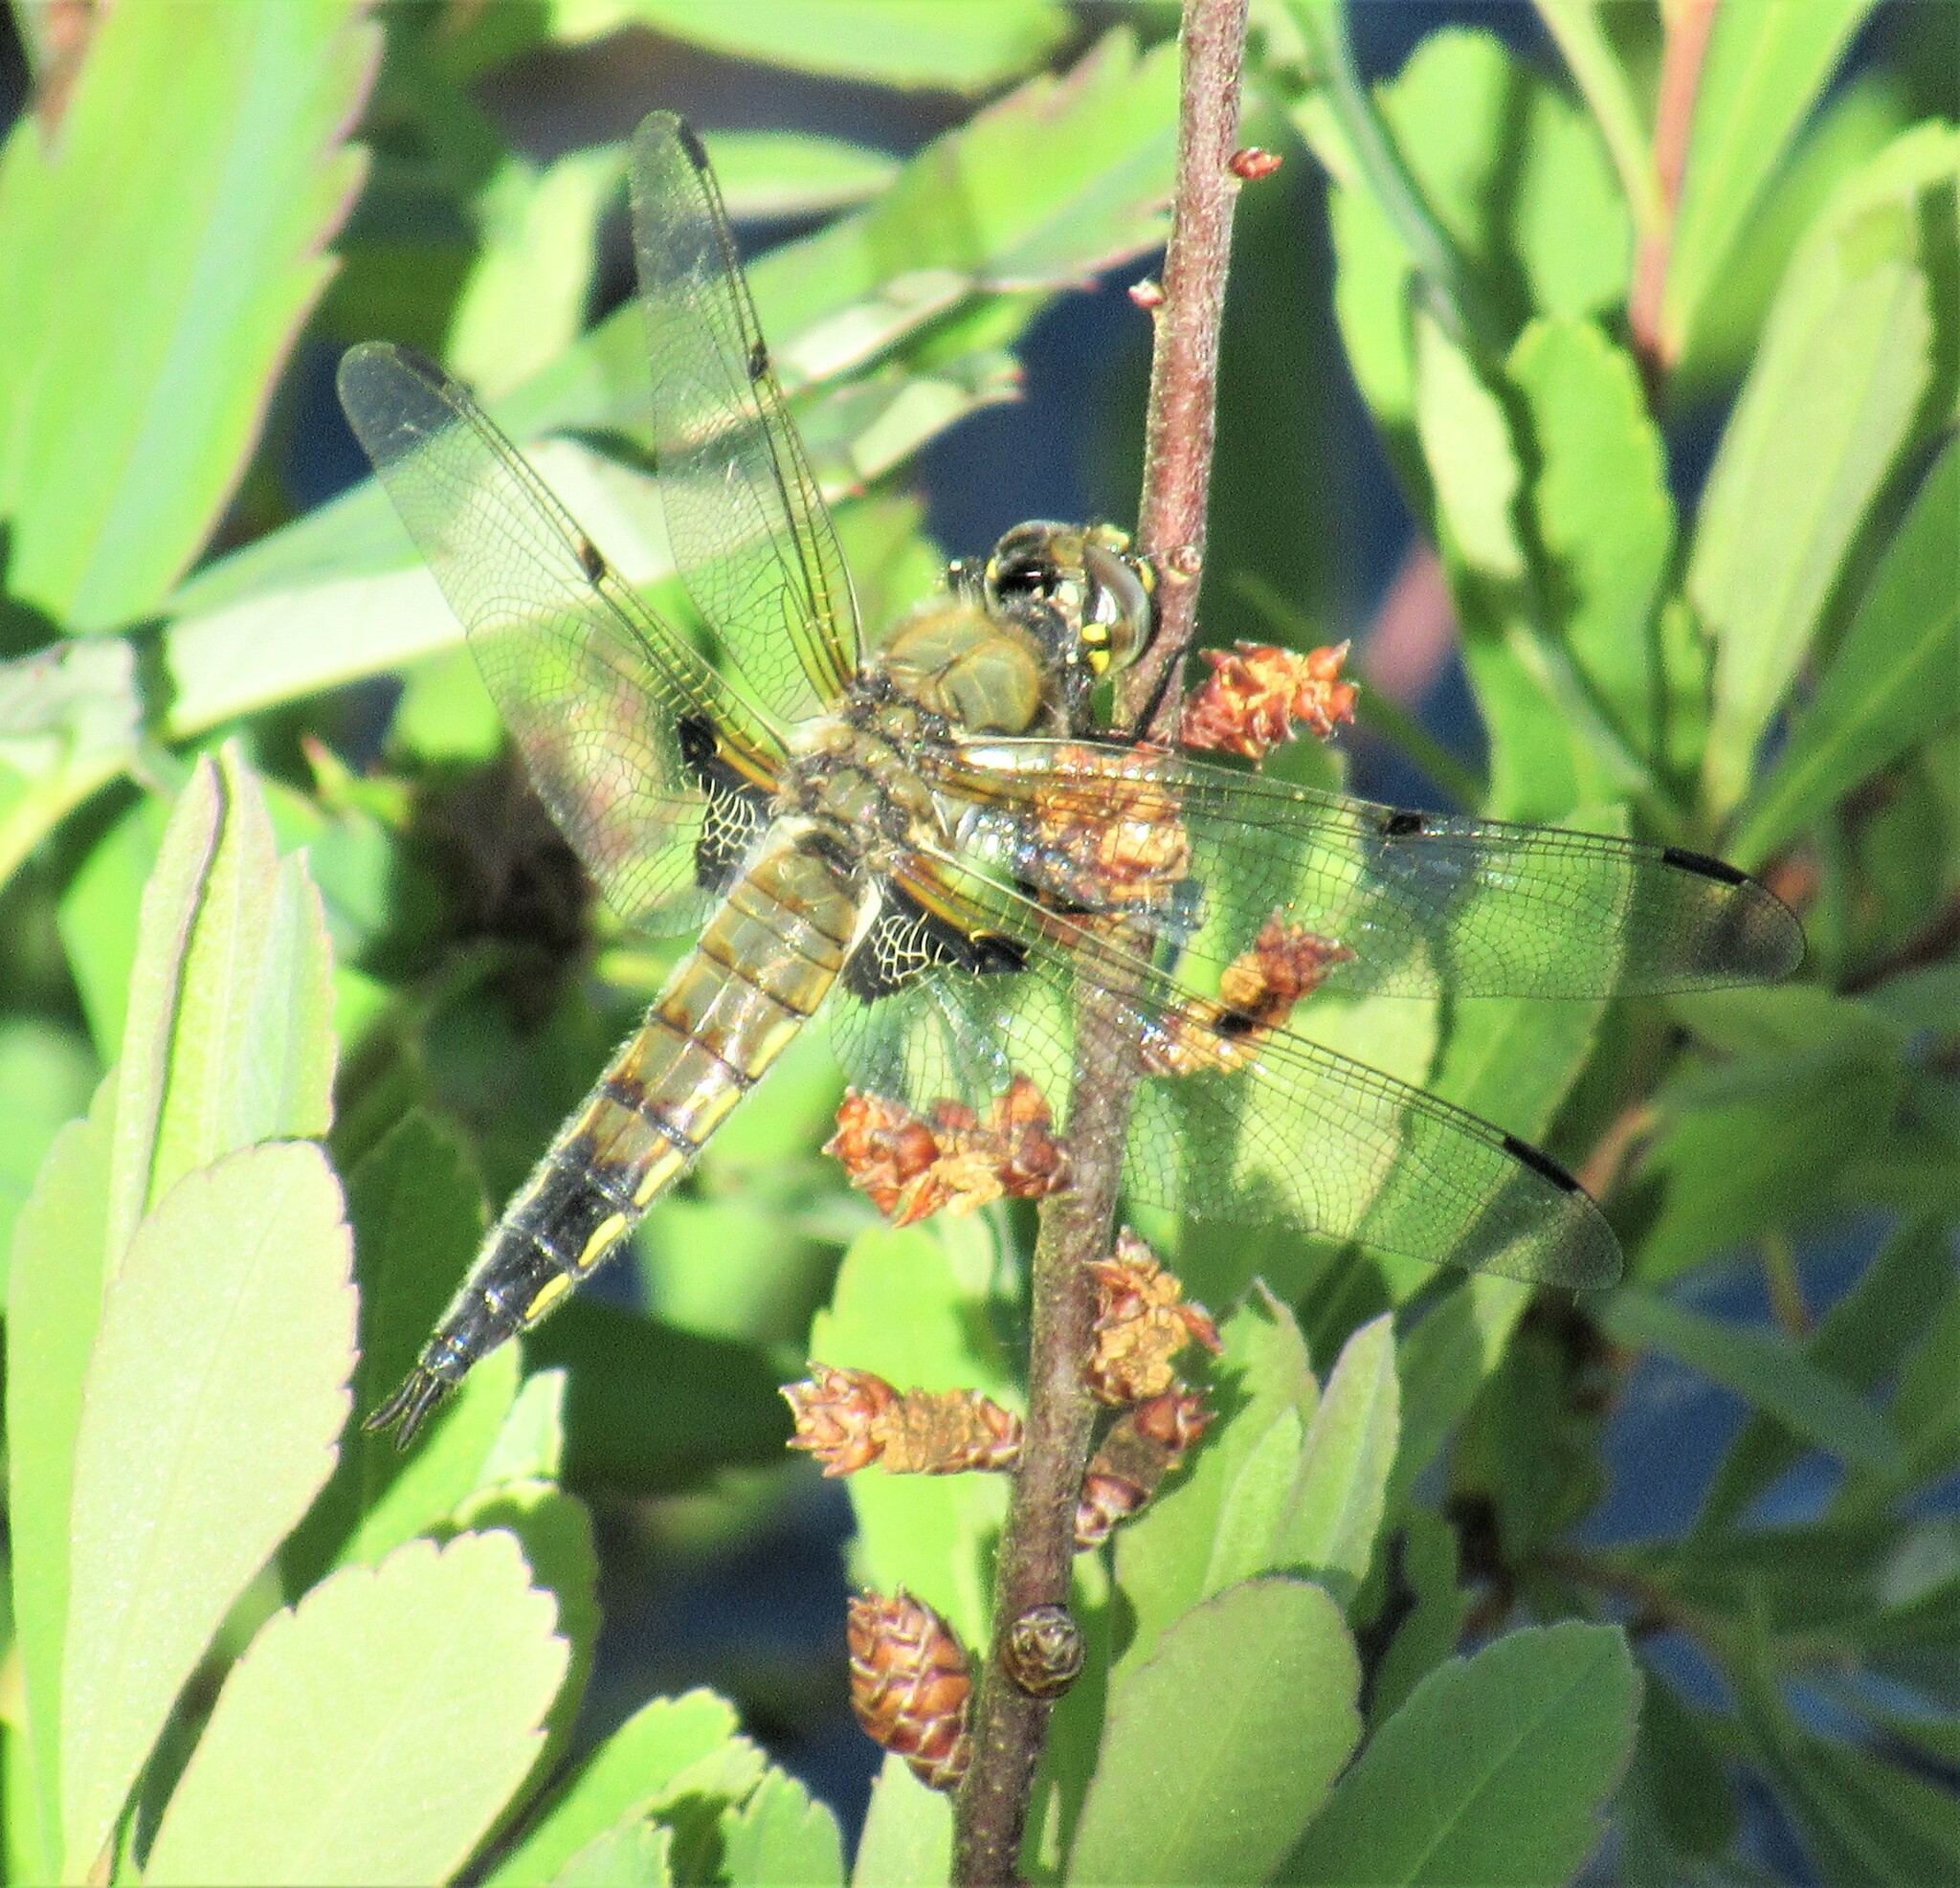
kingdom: Animalia
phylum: Arthropoda
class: Insecta
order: Odonata
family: Libellulidae
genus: Libellula
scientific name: Libellula quadrimaculata
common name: Four-spotted chaser
